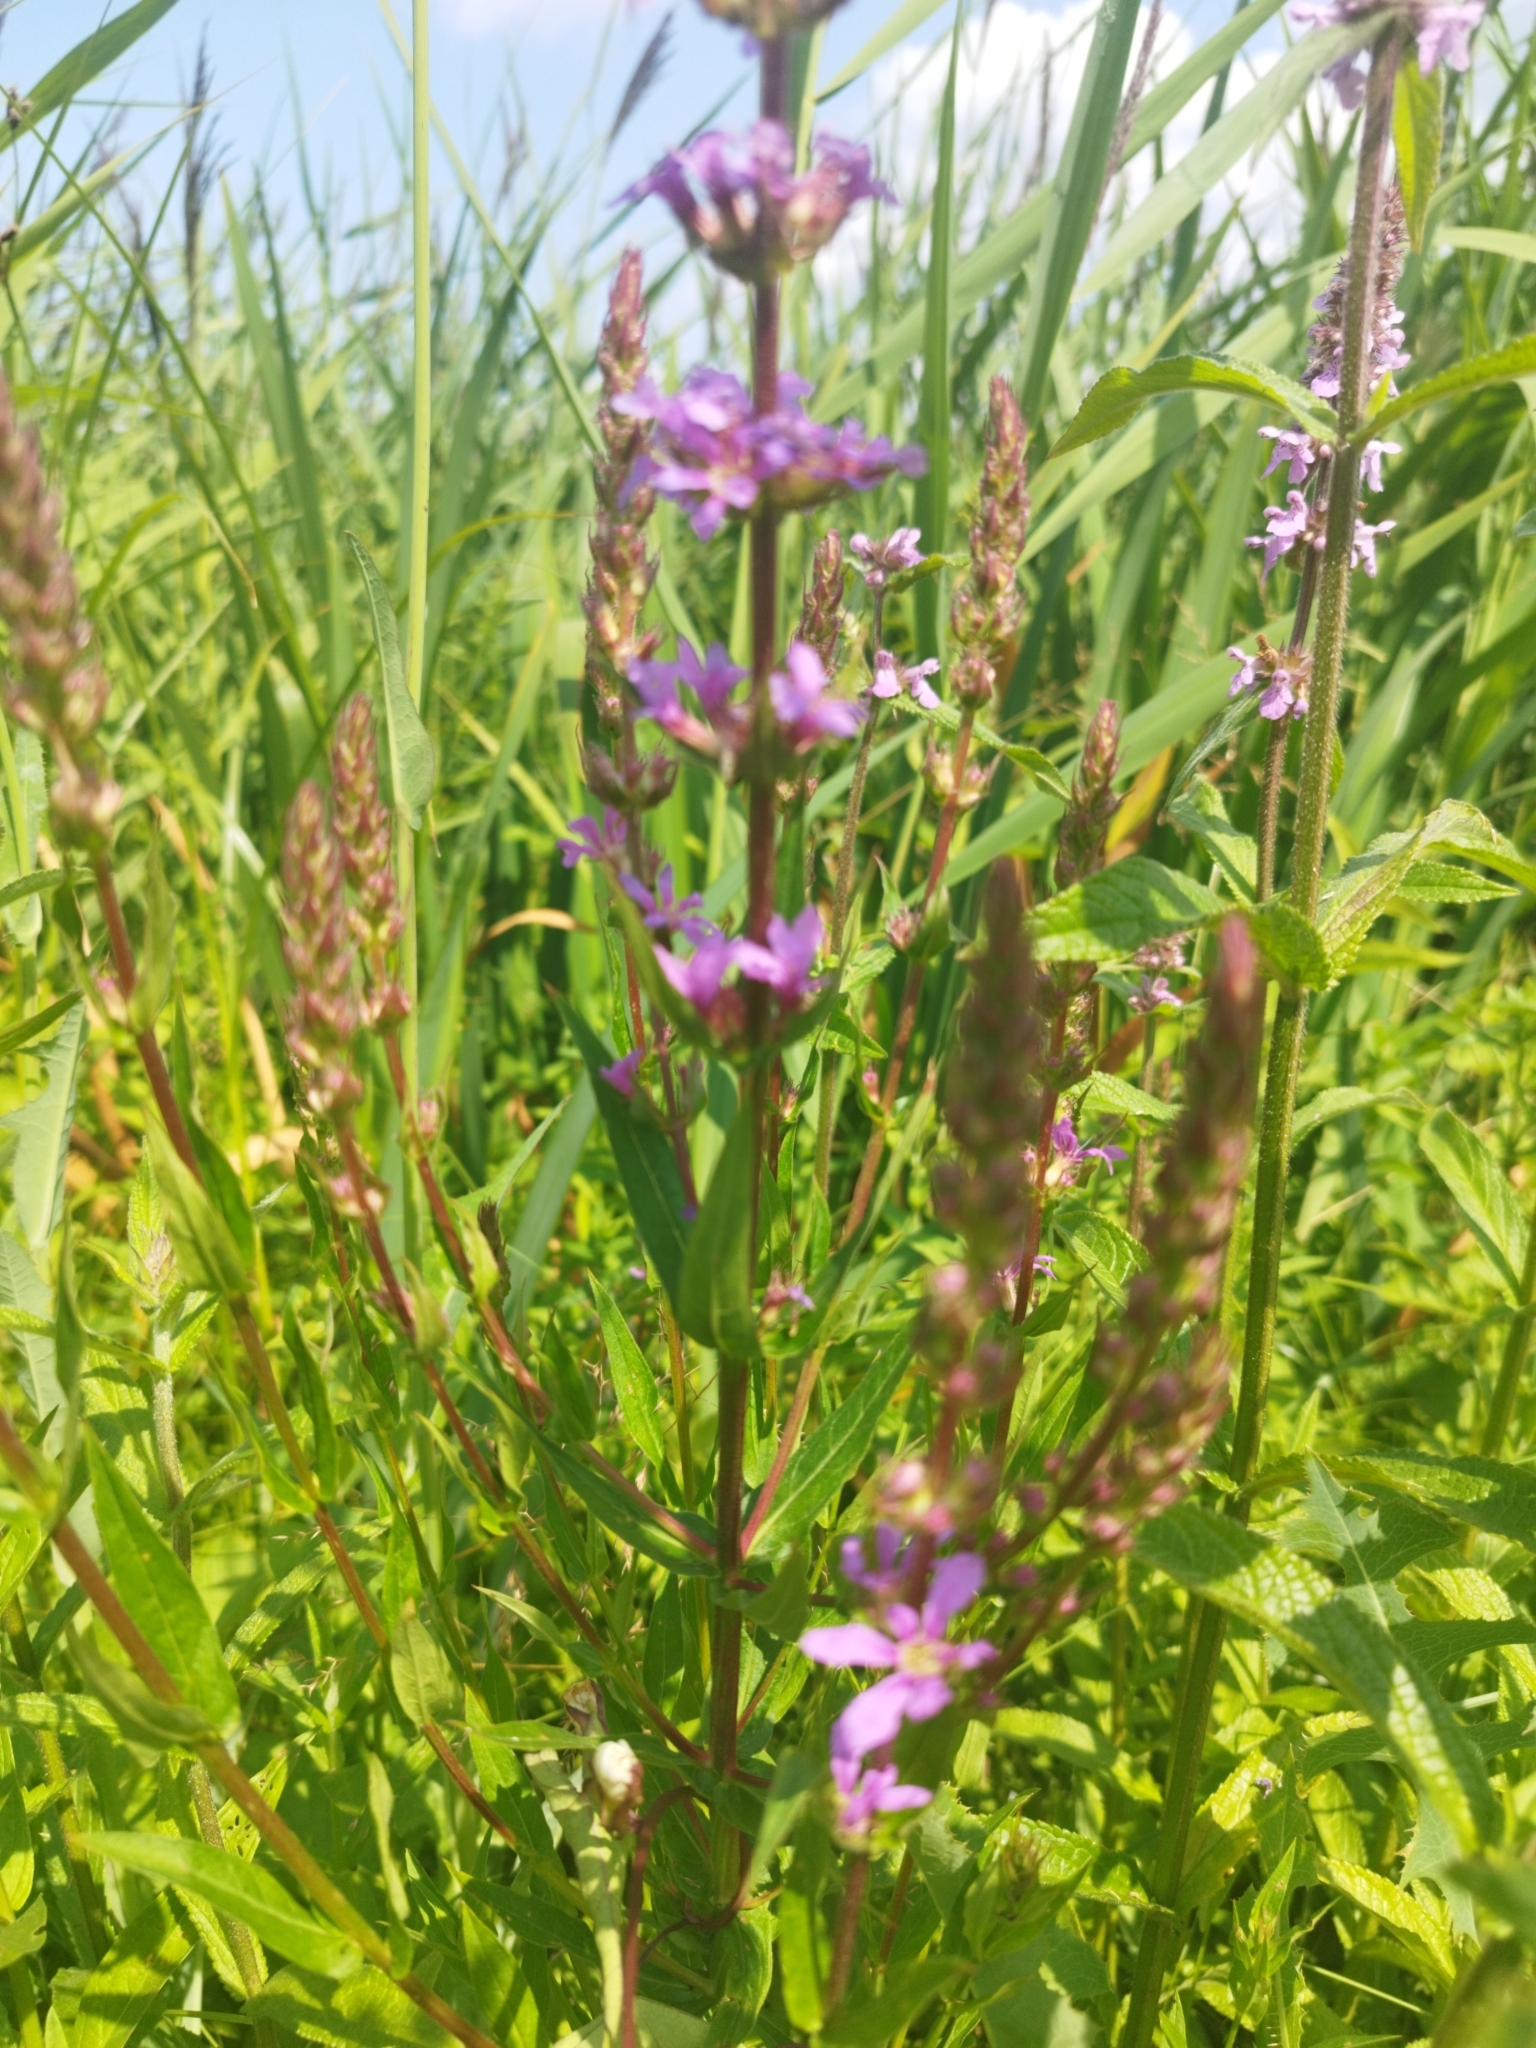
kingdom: Plantae
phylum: Tracheophyta
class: Magnoliopsida
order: Myrtales
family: Lythraceae
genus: Lythrum
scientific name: Lythrum salicaria
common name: Purple loosestrife
